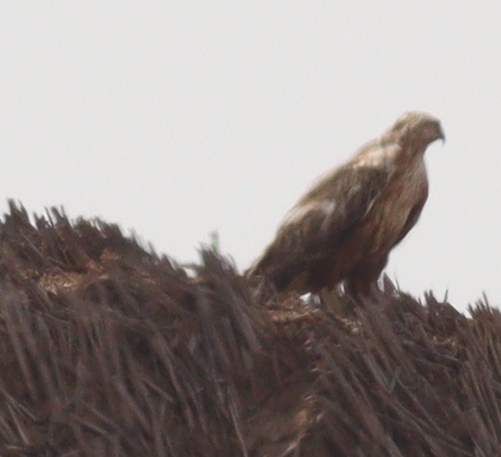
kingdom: Animalia
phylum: Chordata
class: Aves
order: Accipitriformes
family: Accipitridae
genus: Buteo
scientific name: Buteo rufinus
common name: Long-legged buzzard
